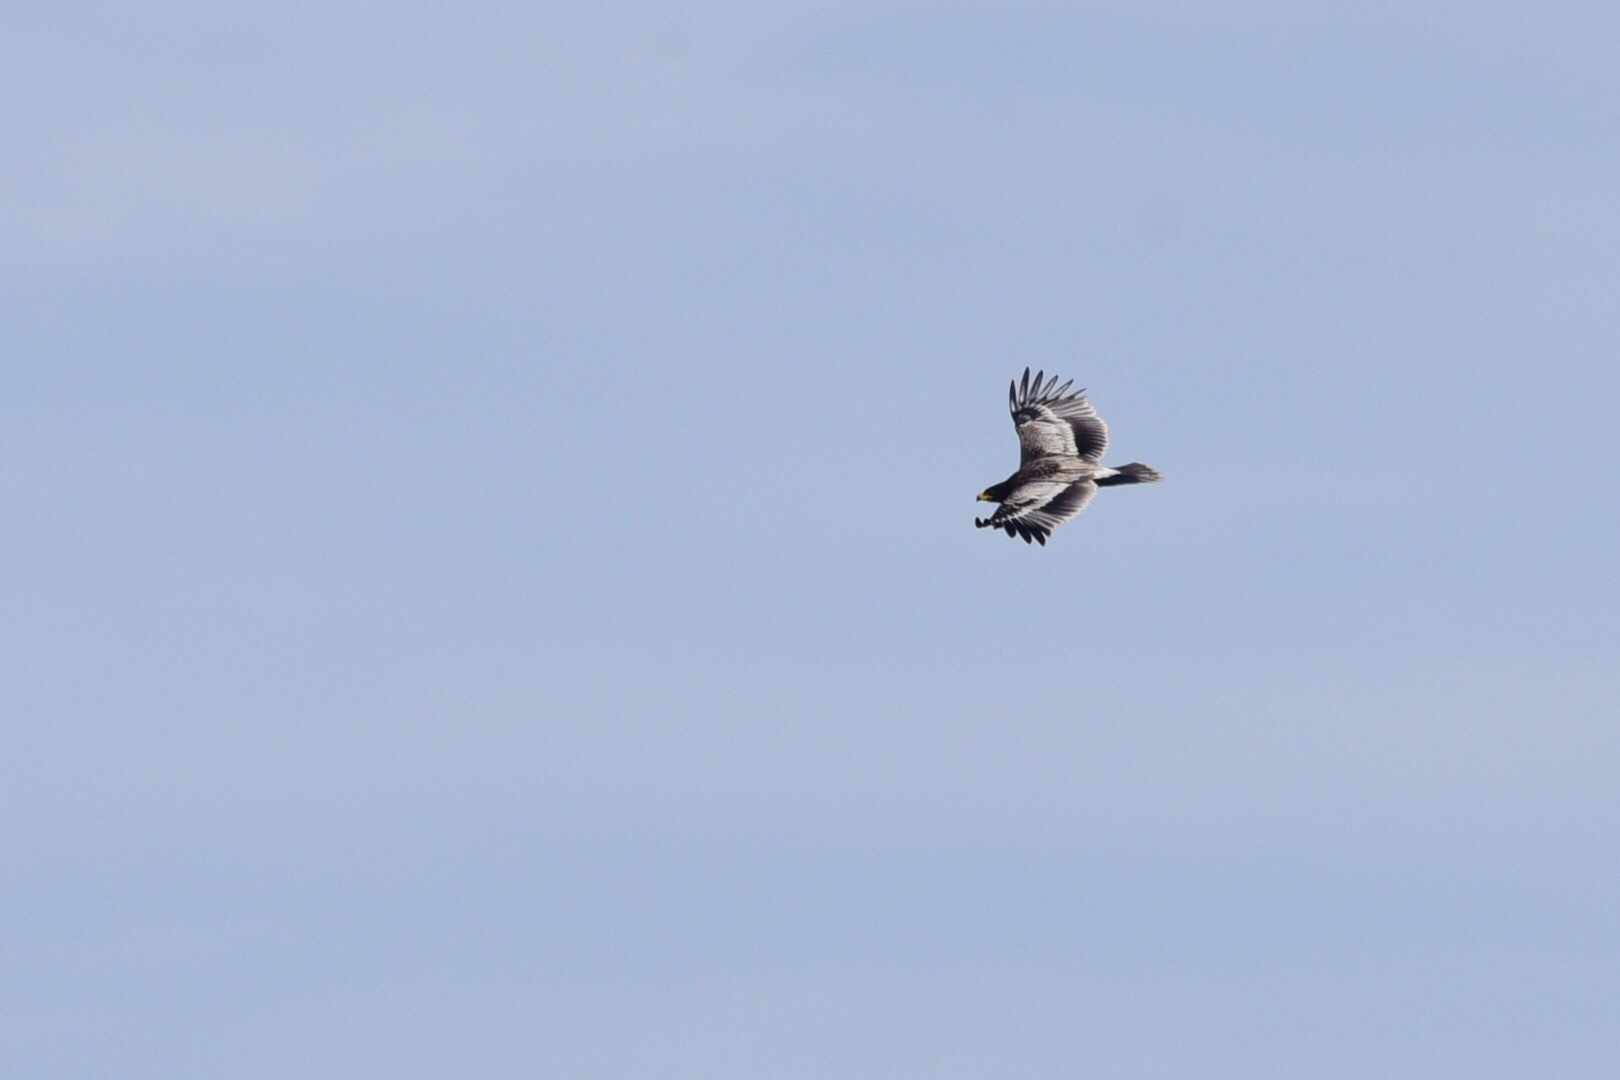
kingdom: Animalia
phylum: Chordata
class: Aves
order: Accipitriformes
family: Accipitridae
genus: Aquila
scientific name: Aquila clanga
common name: Greater spotted eagle
